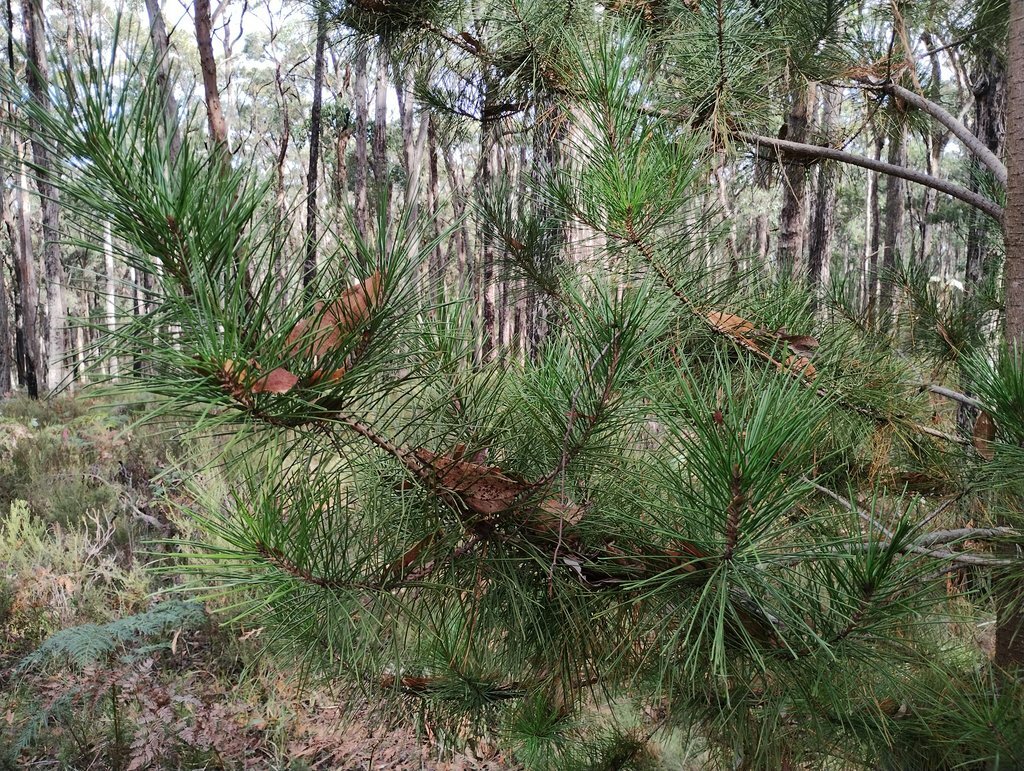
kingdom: Plantae
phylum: Tracheophyta
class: Pinopsida
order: Pinales
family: Pinaceae
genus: Pinus
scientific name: Pinus radiata
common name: Monterey pine
